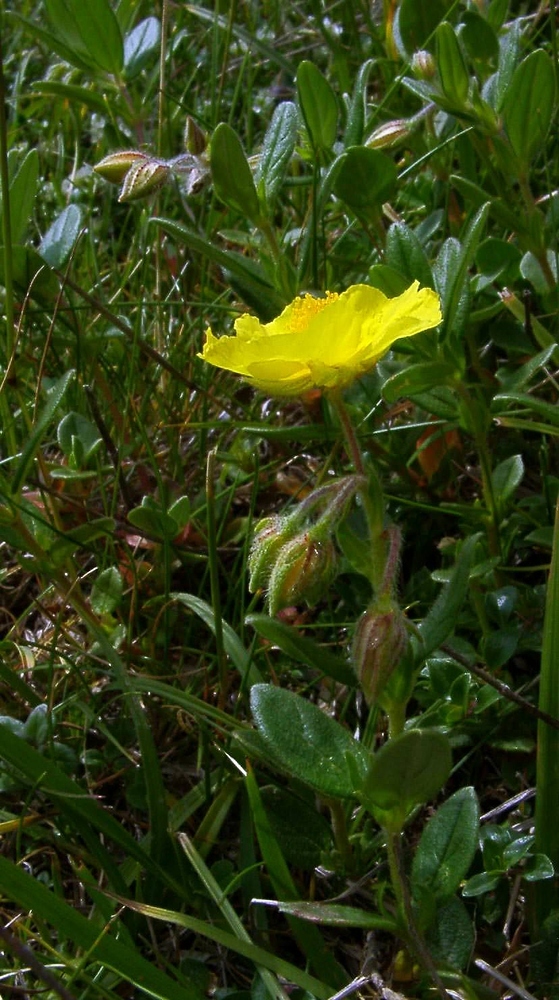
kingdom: Plantae
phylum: Tracheophyta
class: Magnoliopsida
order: Malvales
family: Cistaceae
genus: Helianthemum
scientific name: Helianthemum nummularium
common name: Common rock-rose
